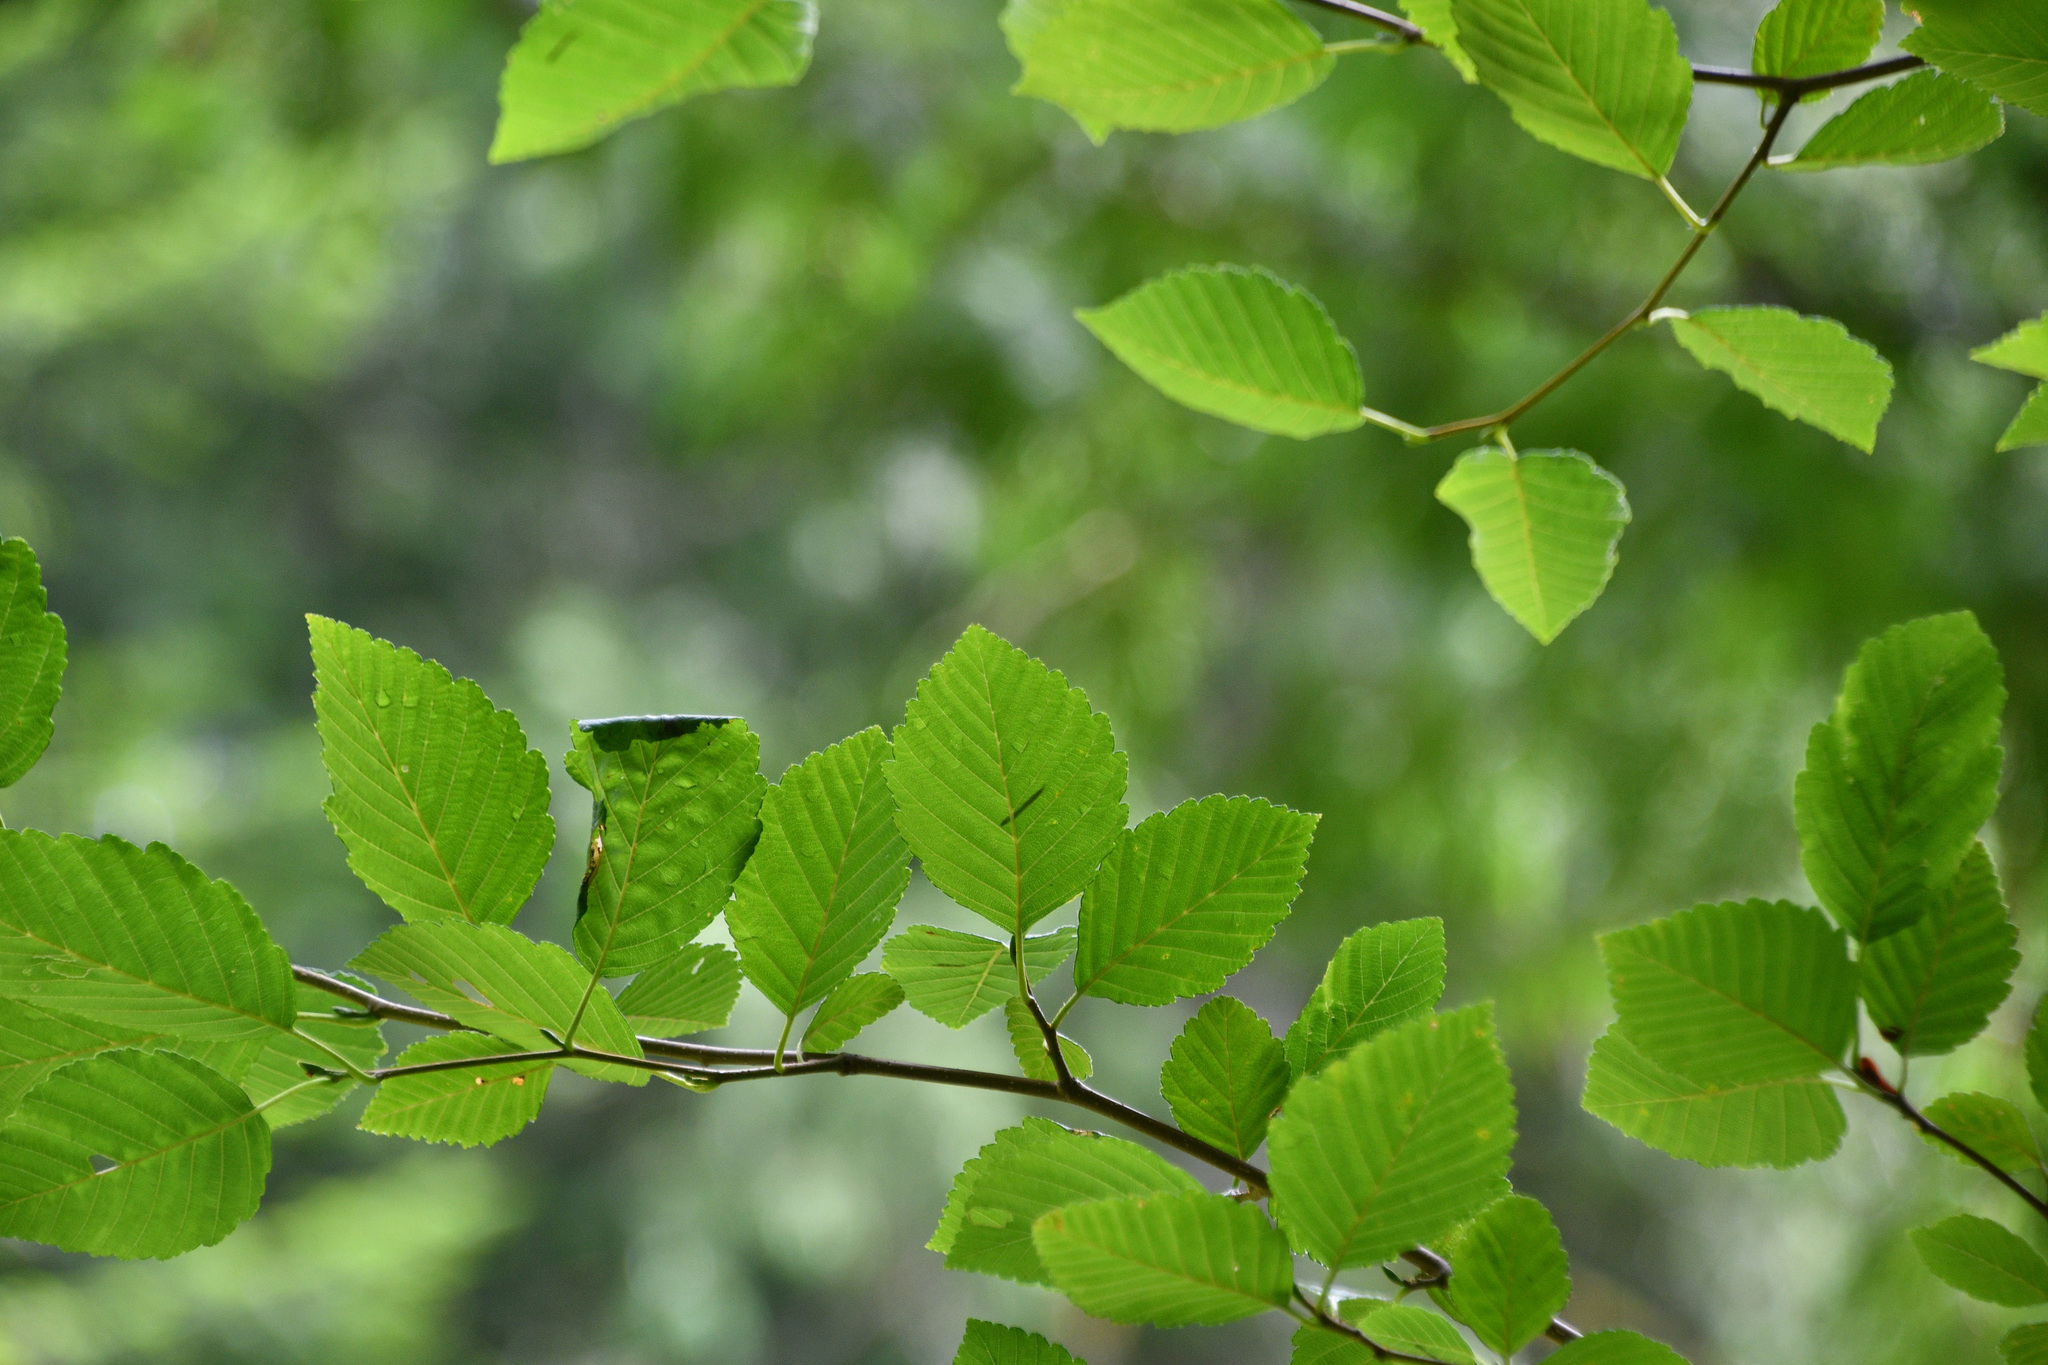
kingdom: Plantae
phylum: Tracheophyta
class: Magnoliopsida
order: Fagales
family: Betulaceae
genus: Alnus
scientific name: Alnus rubra
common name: Red alder
